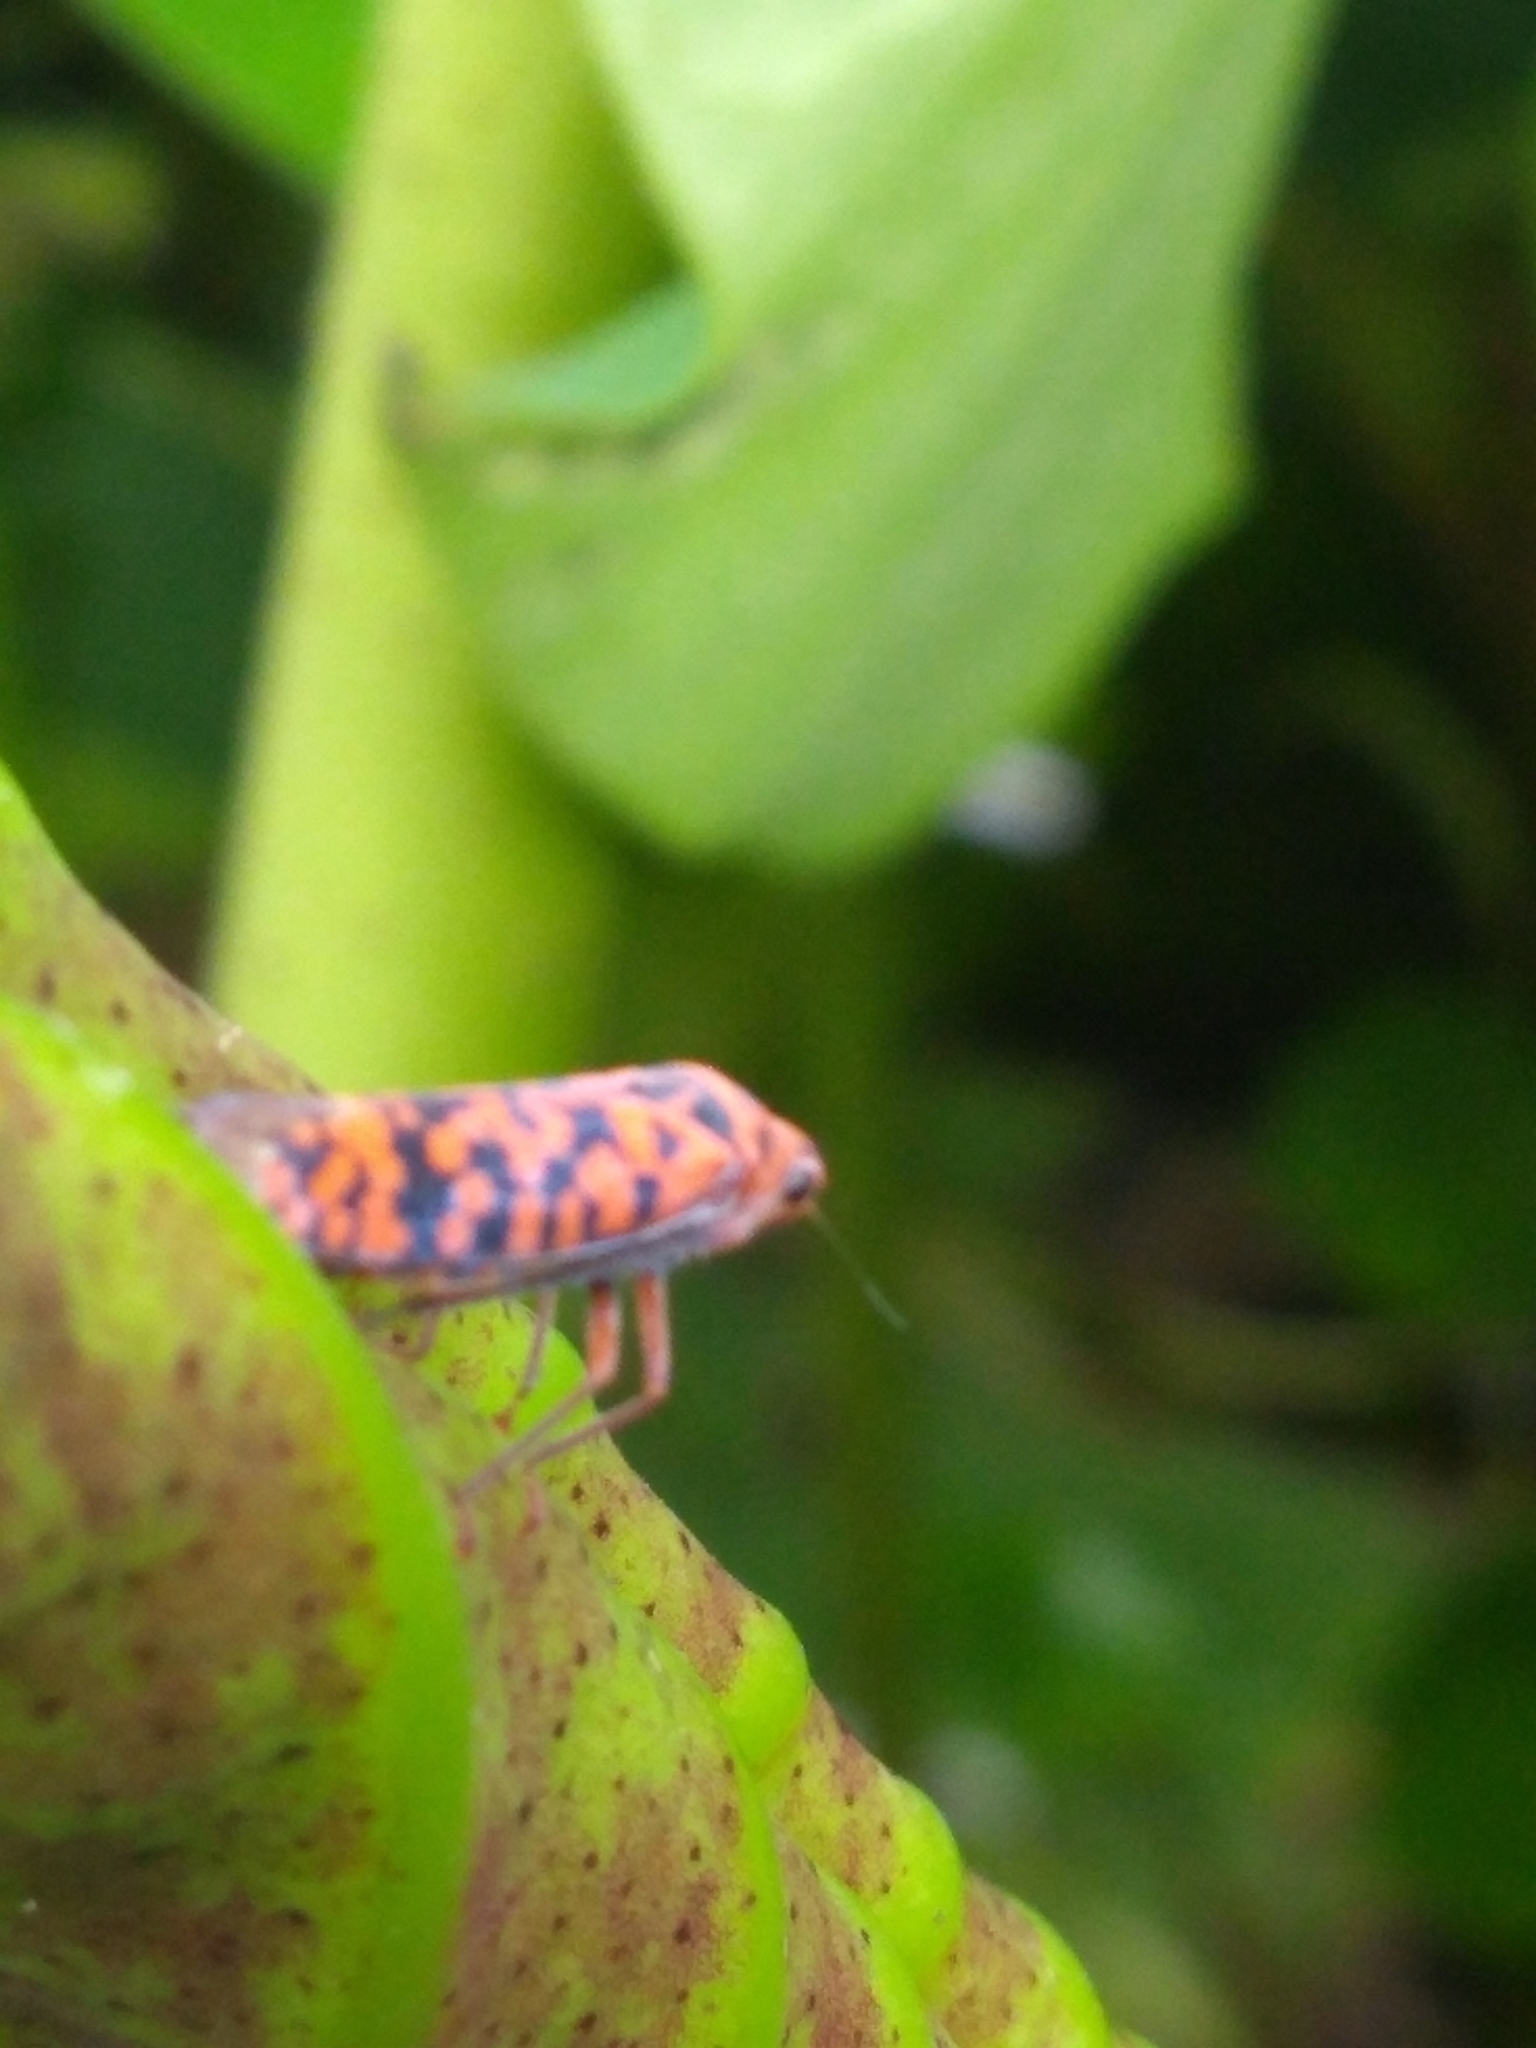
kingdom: Animalia
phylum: Arthropoda
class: Insecta
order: Hemiptera
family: Cicadellidae
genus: Pawiloma
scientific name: Pawiloma victima
